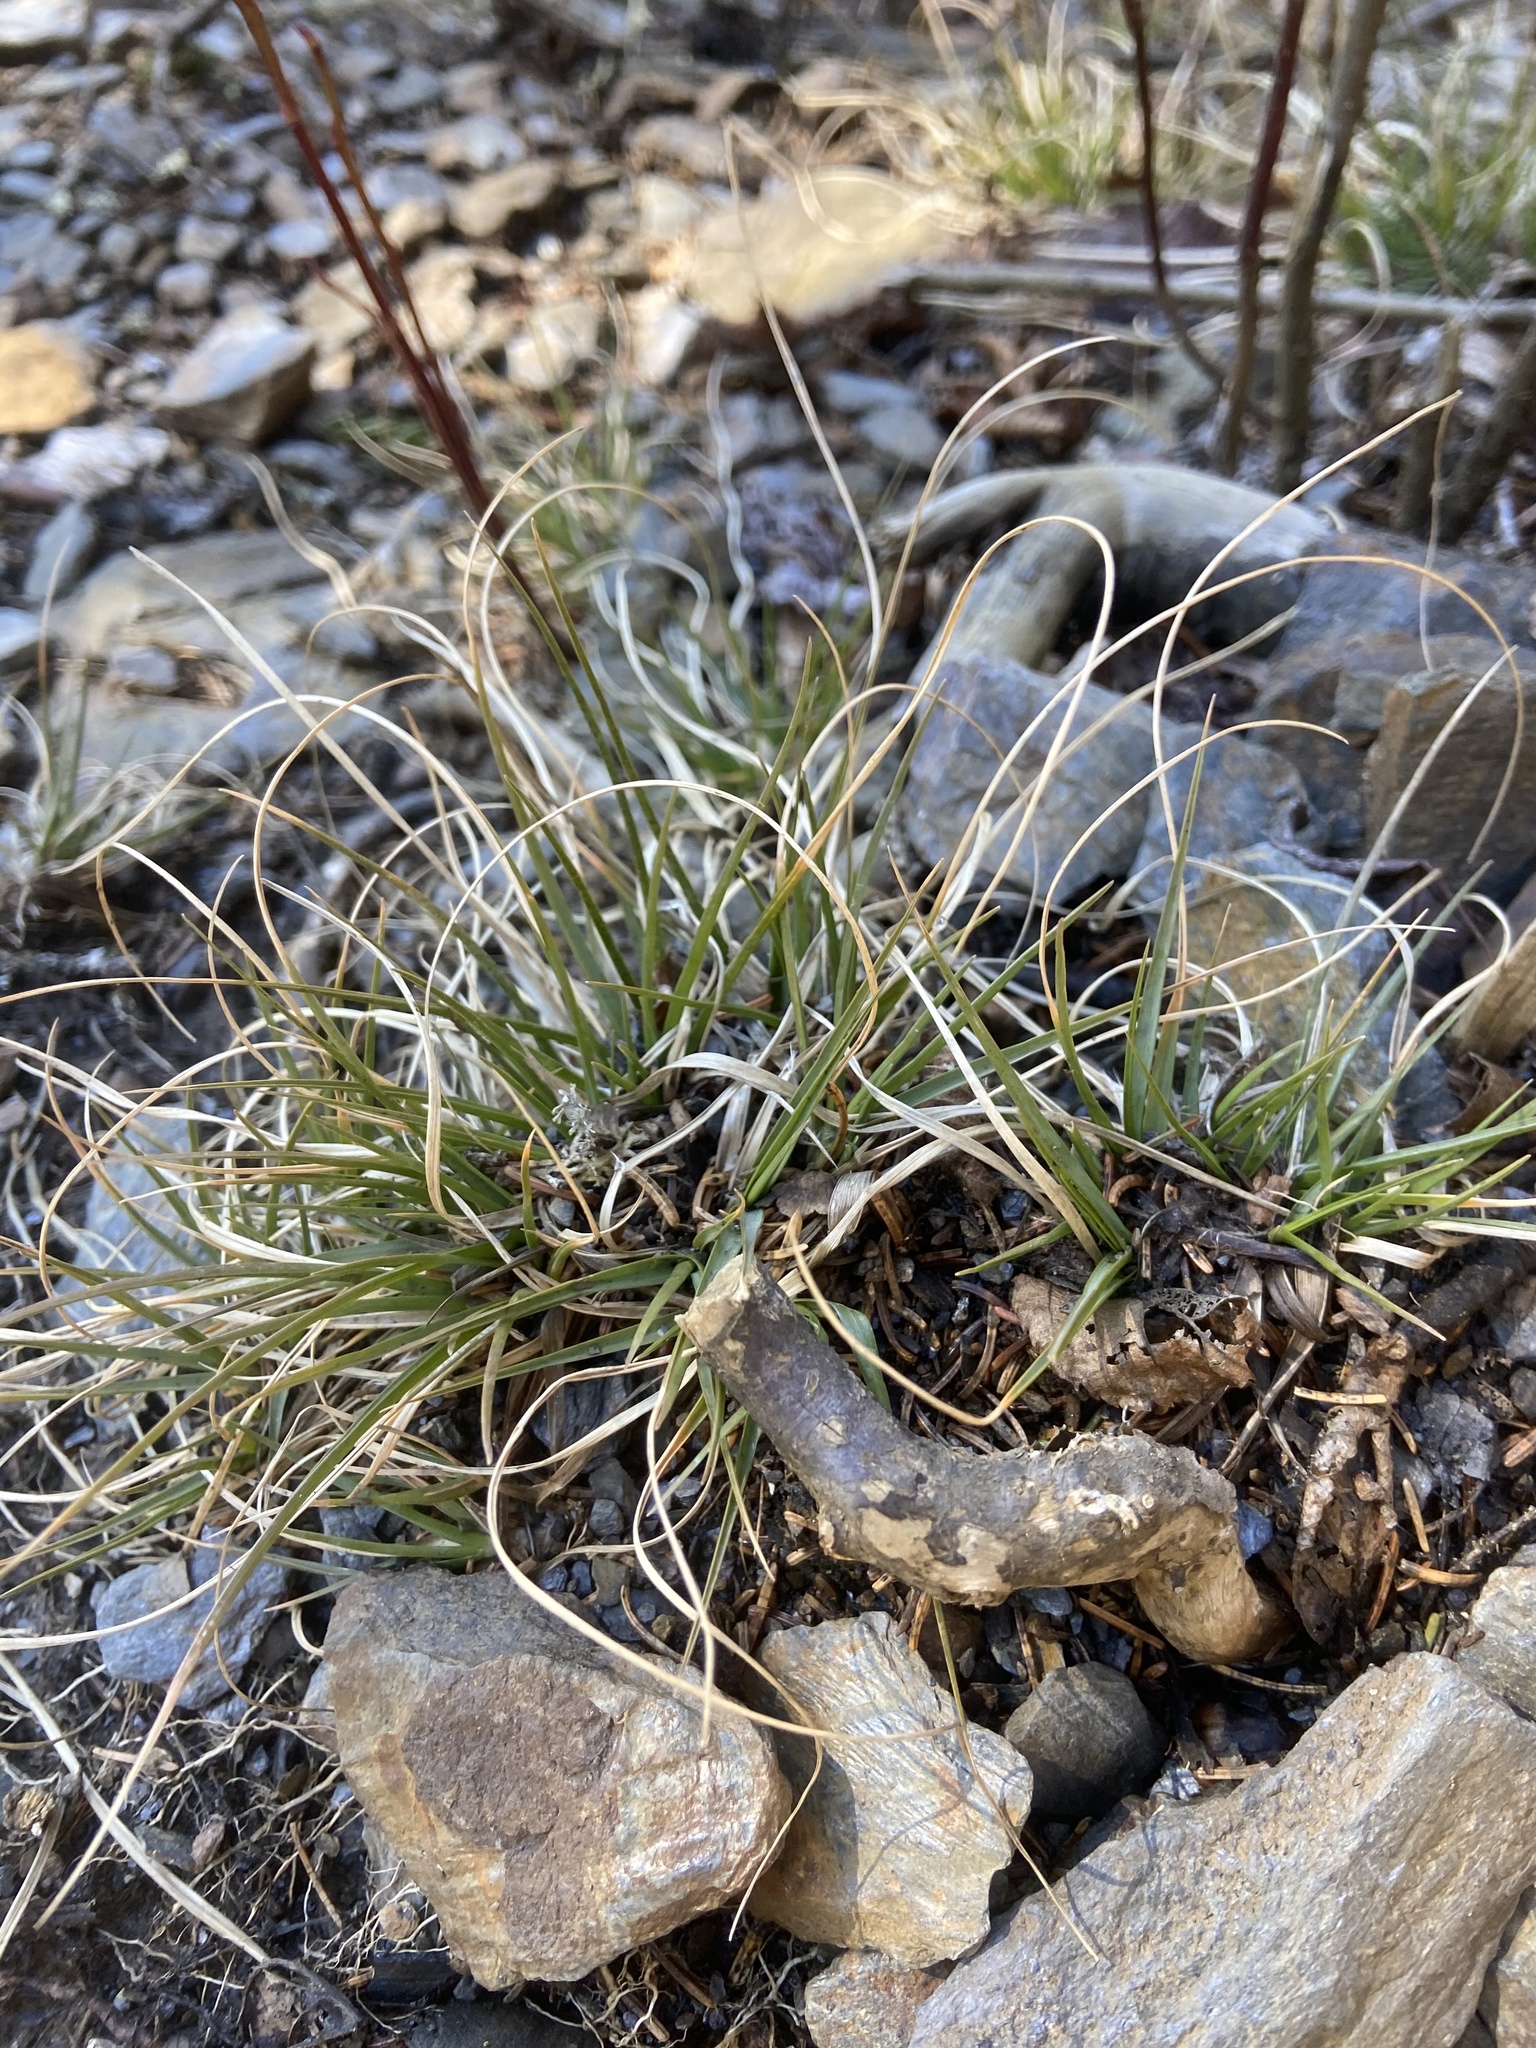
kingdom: Plantae
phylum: Tracheophyta
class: Liliopsida
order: Poales
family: Poaceae
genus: Danthonia
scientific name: Danthonia spicata
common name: Common wild oatgrass
